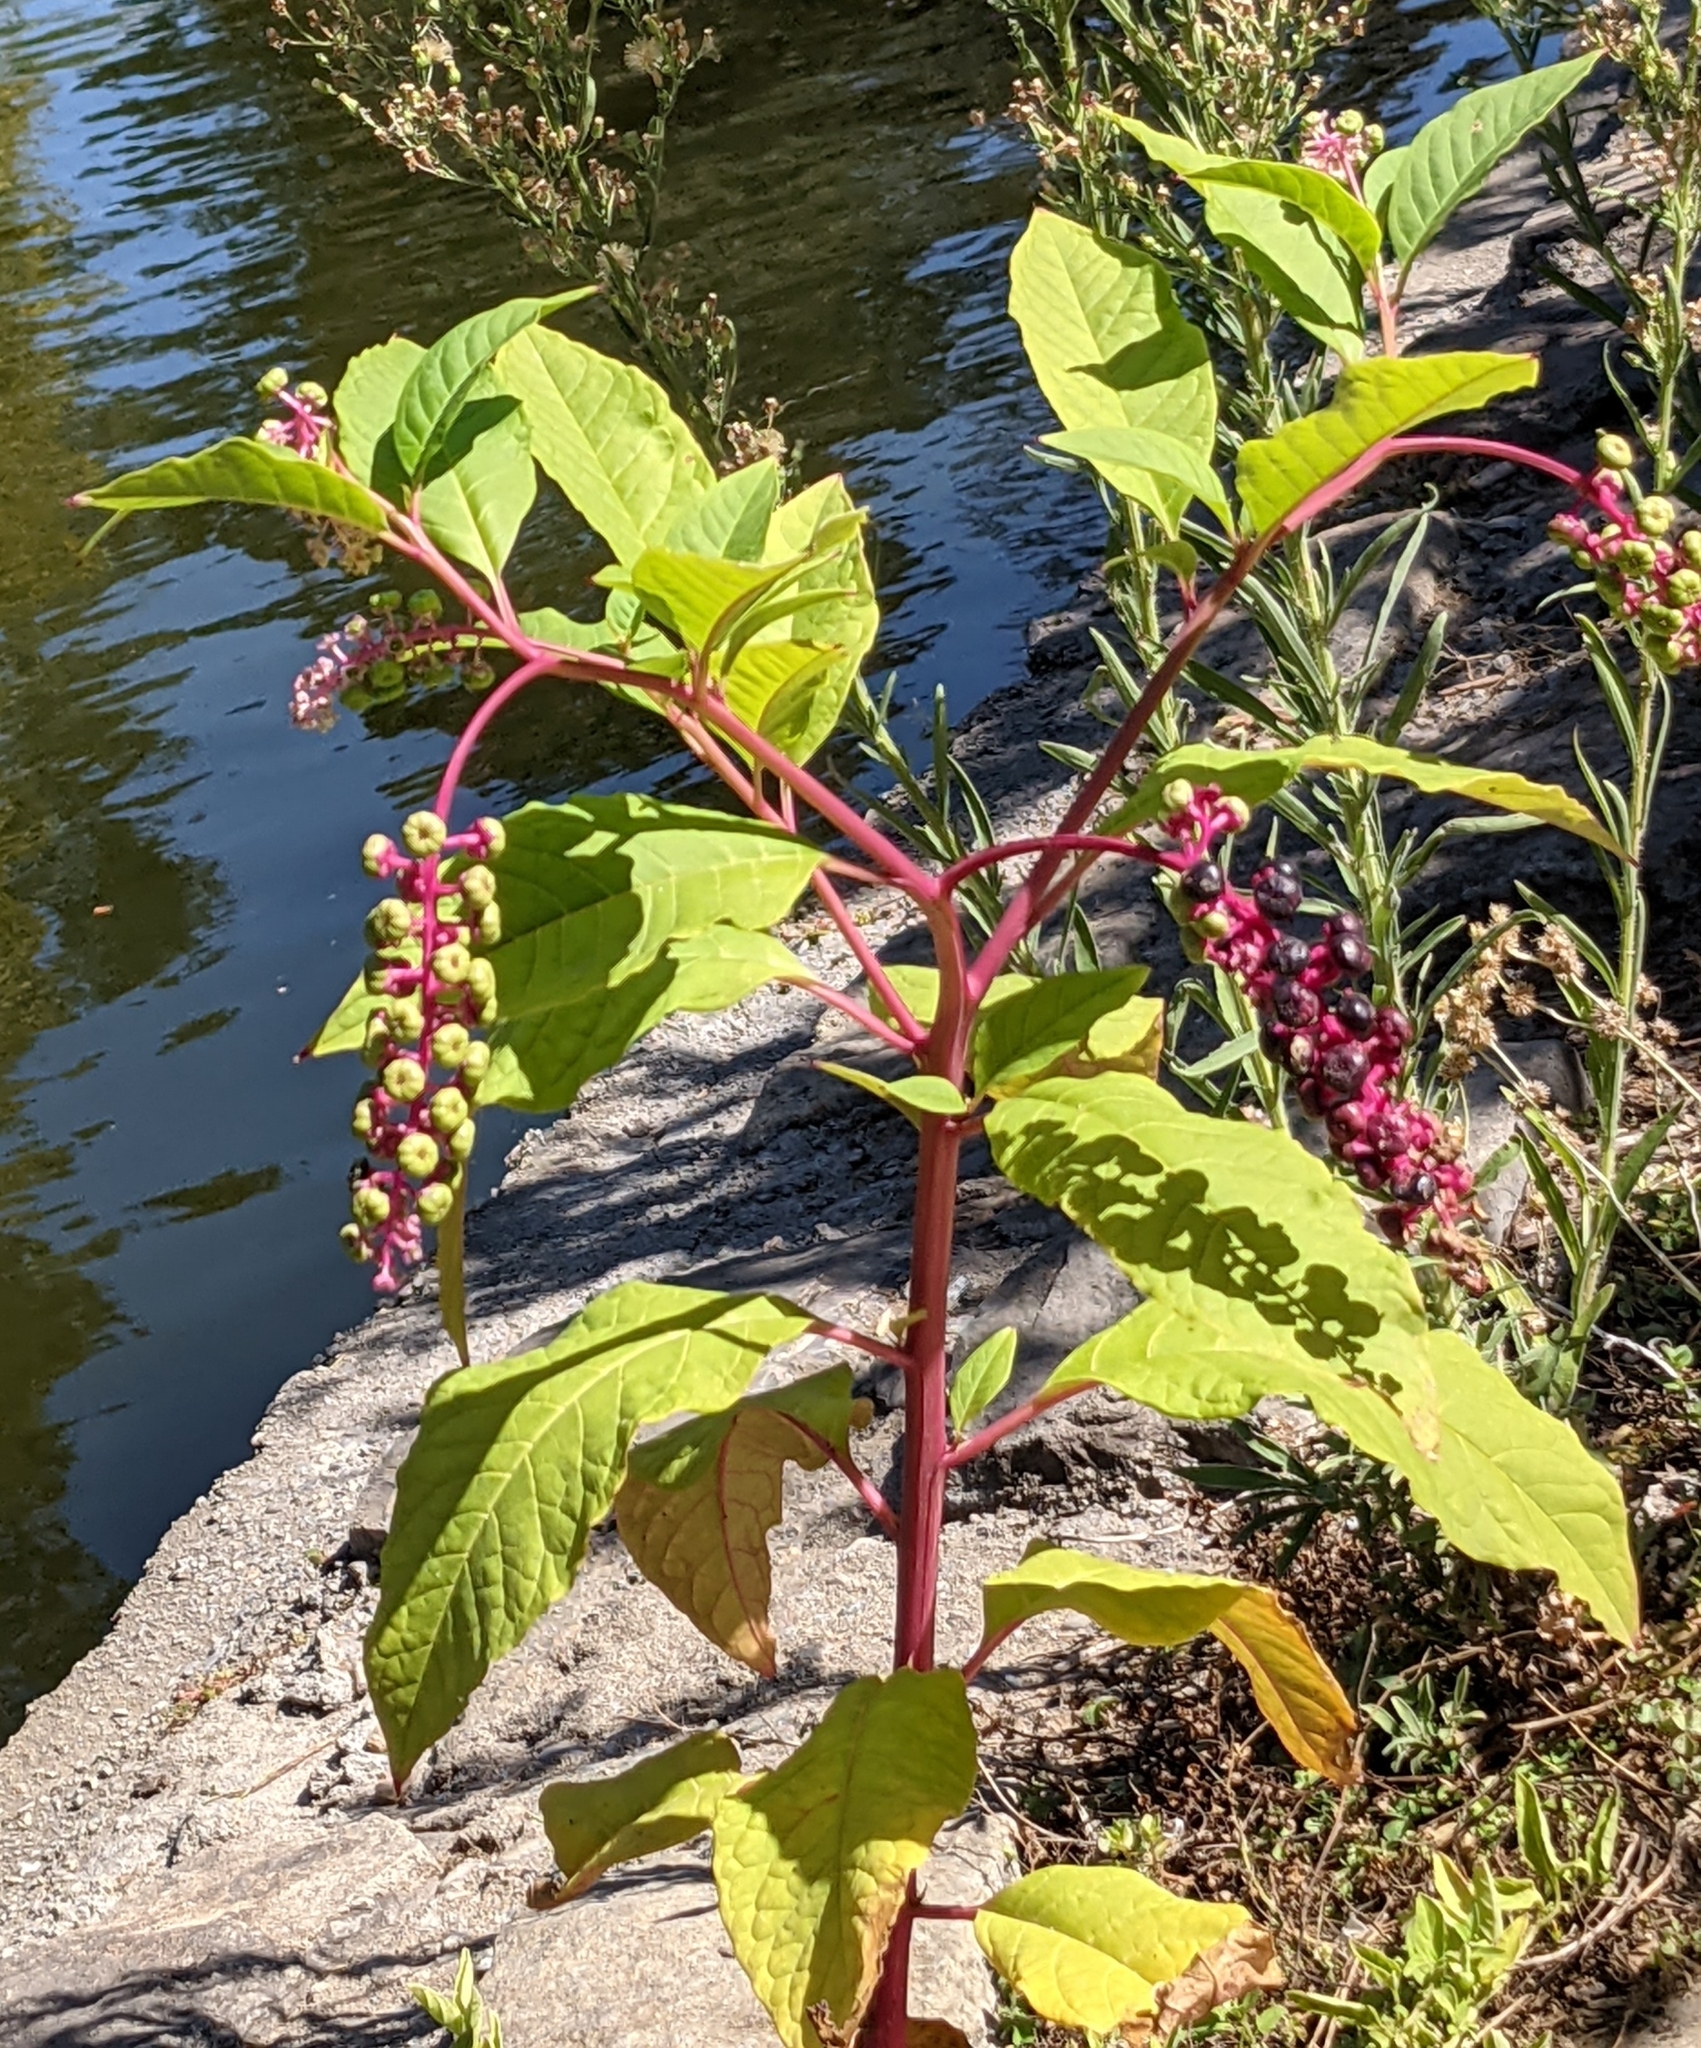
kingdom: Plantae
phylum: Tracheophyta
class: Magnoliopsida
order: Caryophyllales
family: Phytolaccaceae
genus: Phytolacca
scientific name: Phytolacca americana
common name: American pokeweed
